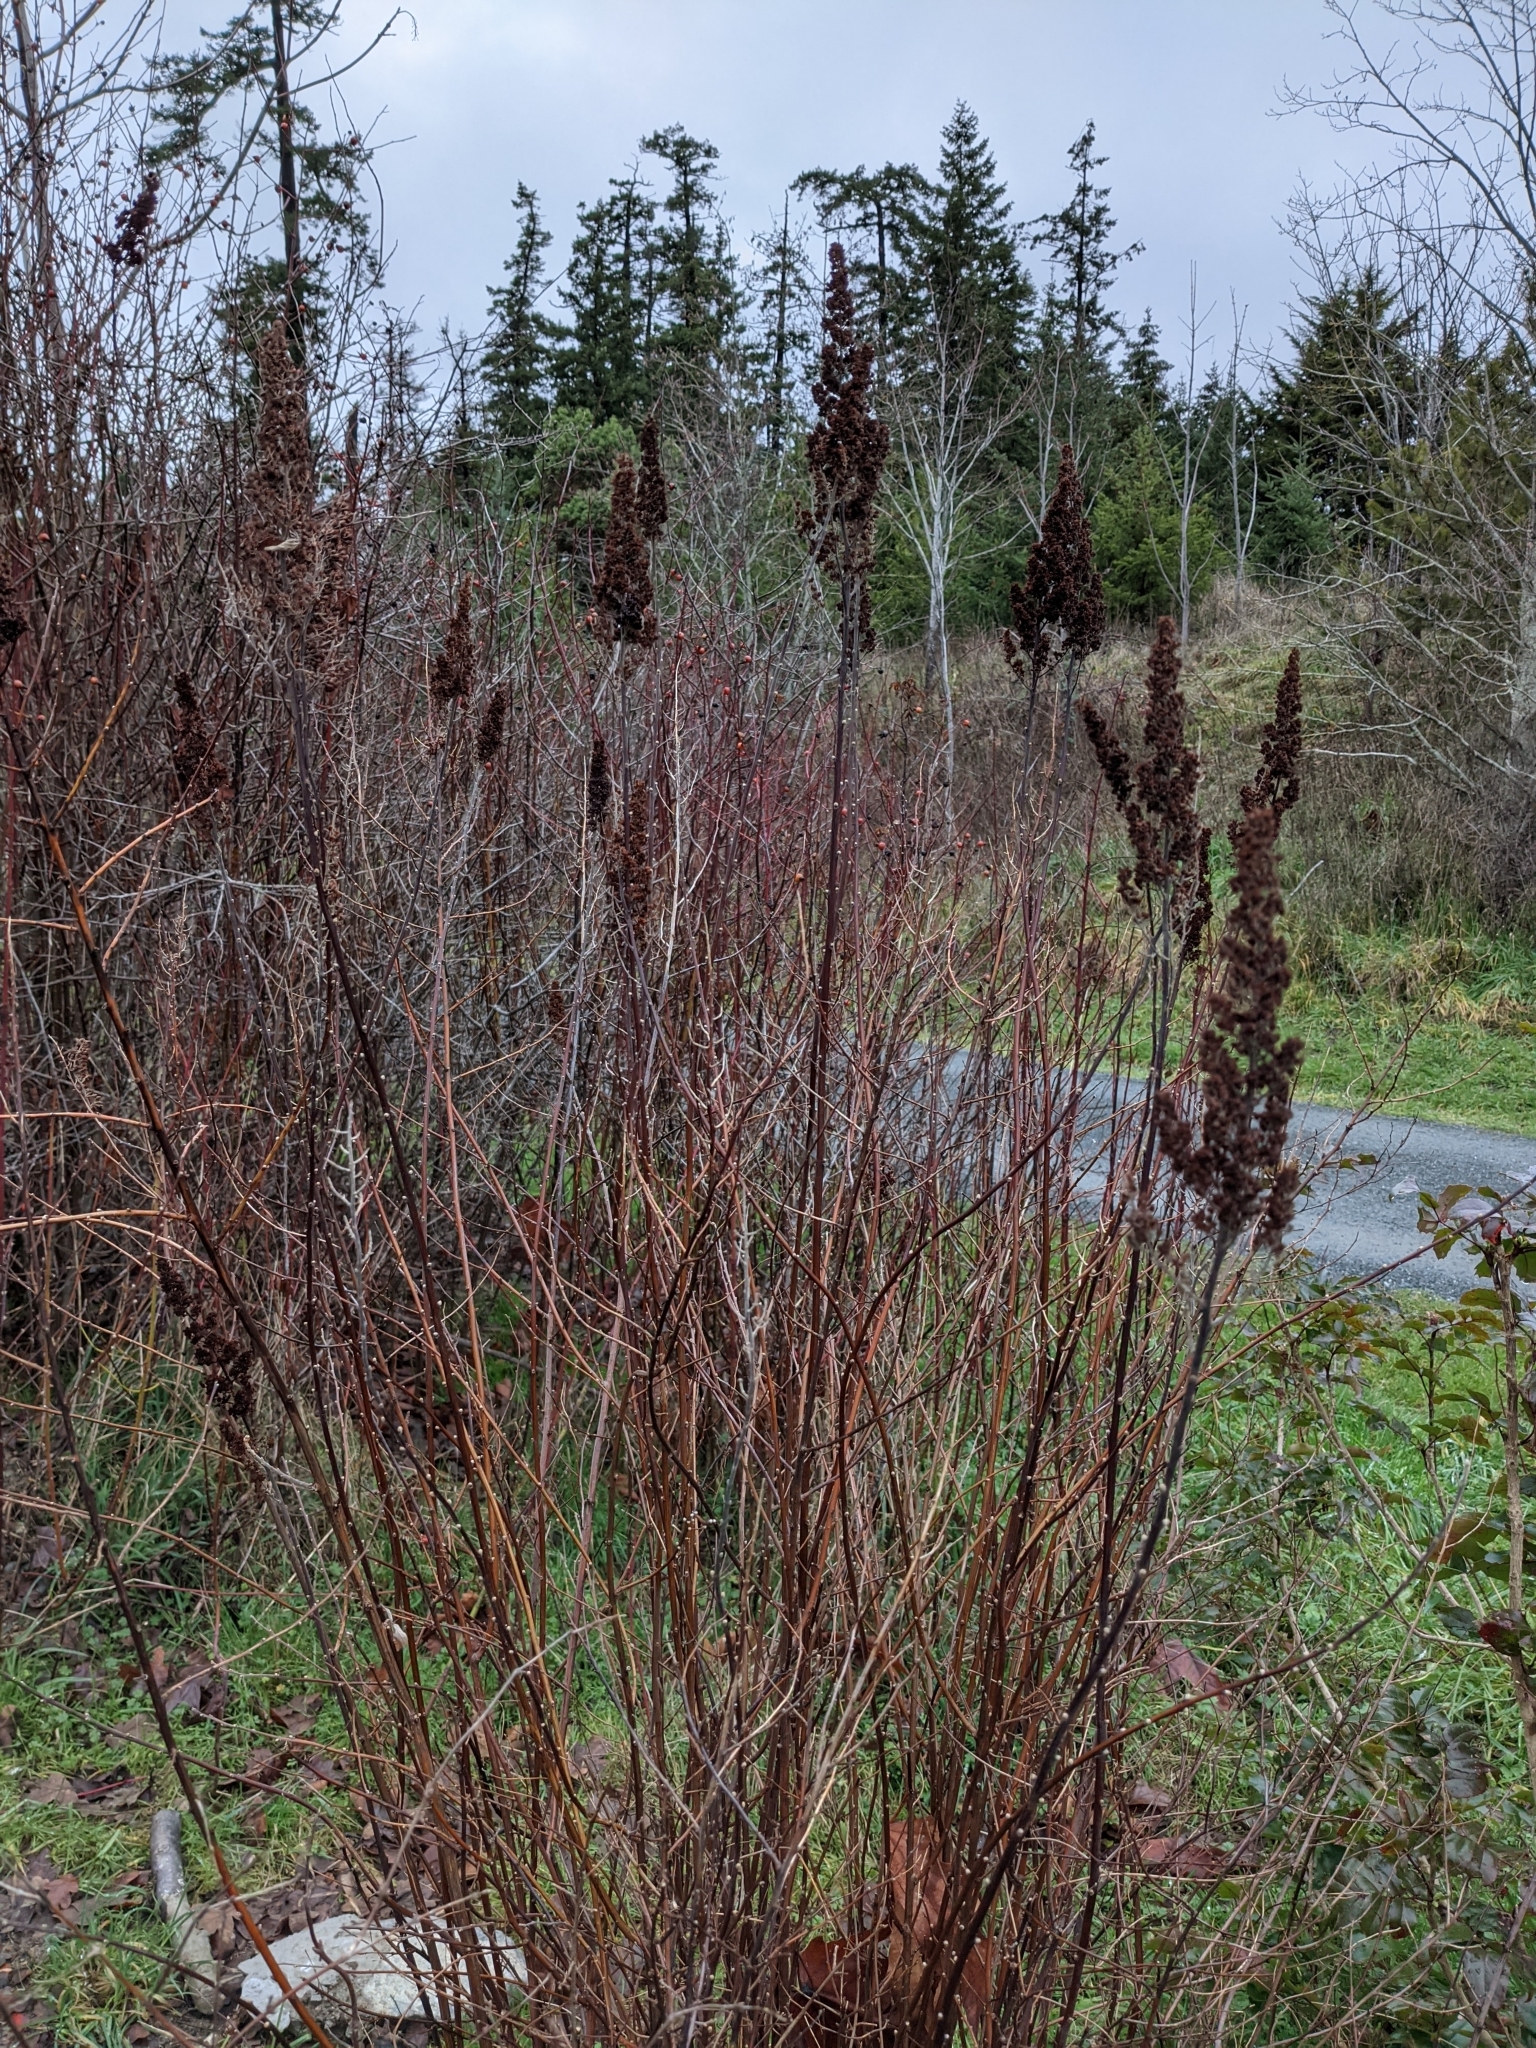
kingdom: Plantae
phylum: Tracheophyta
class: Magnoliopsida
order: Rosales
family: Rosaceae
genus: Spiraea
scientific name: Spiraea douglasii
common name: Steeplebush
